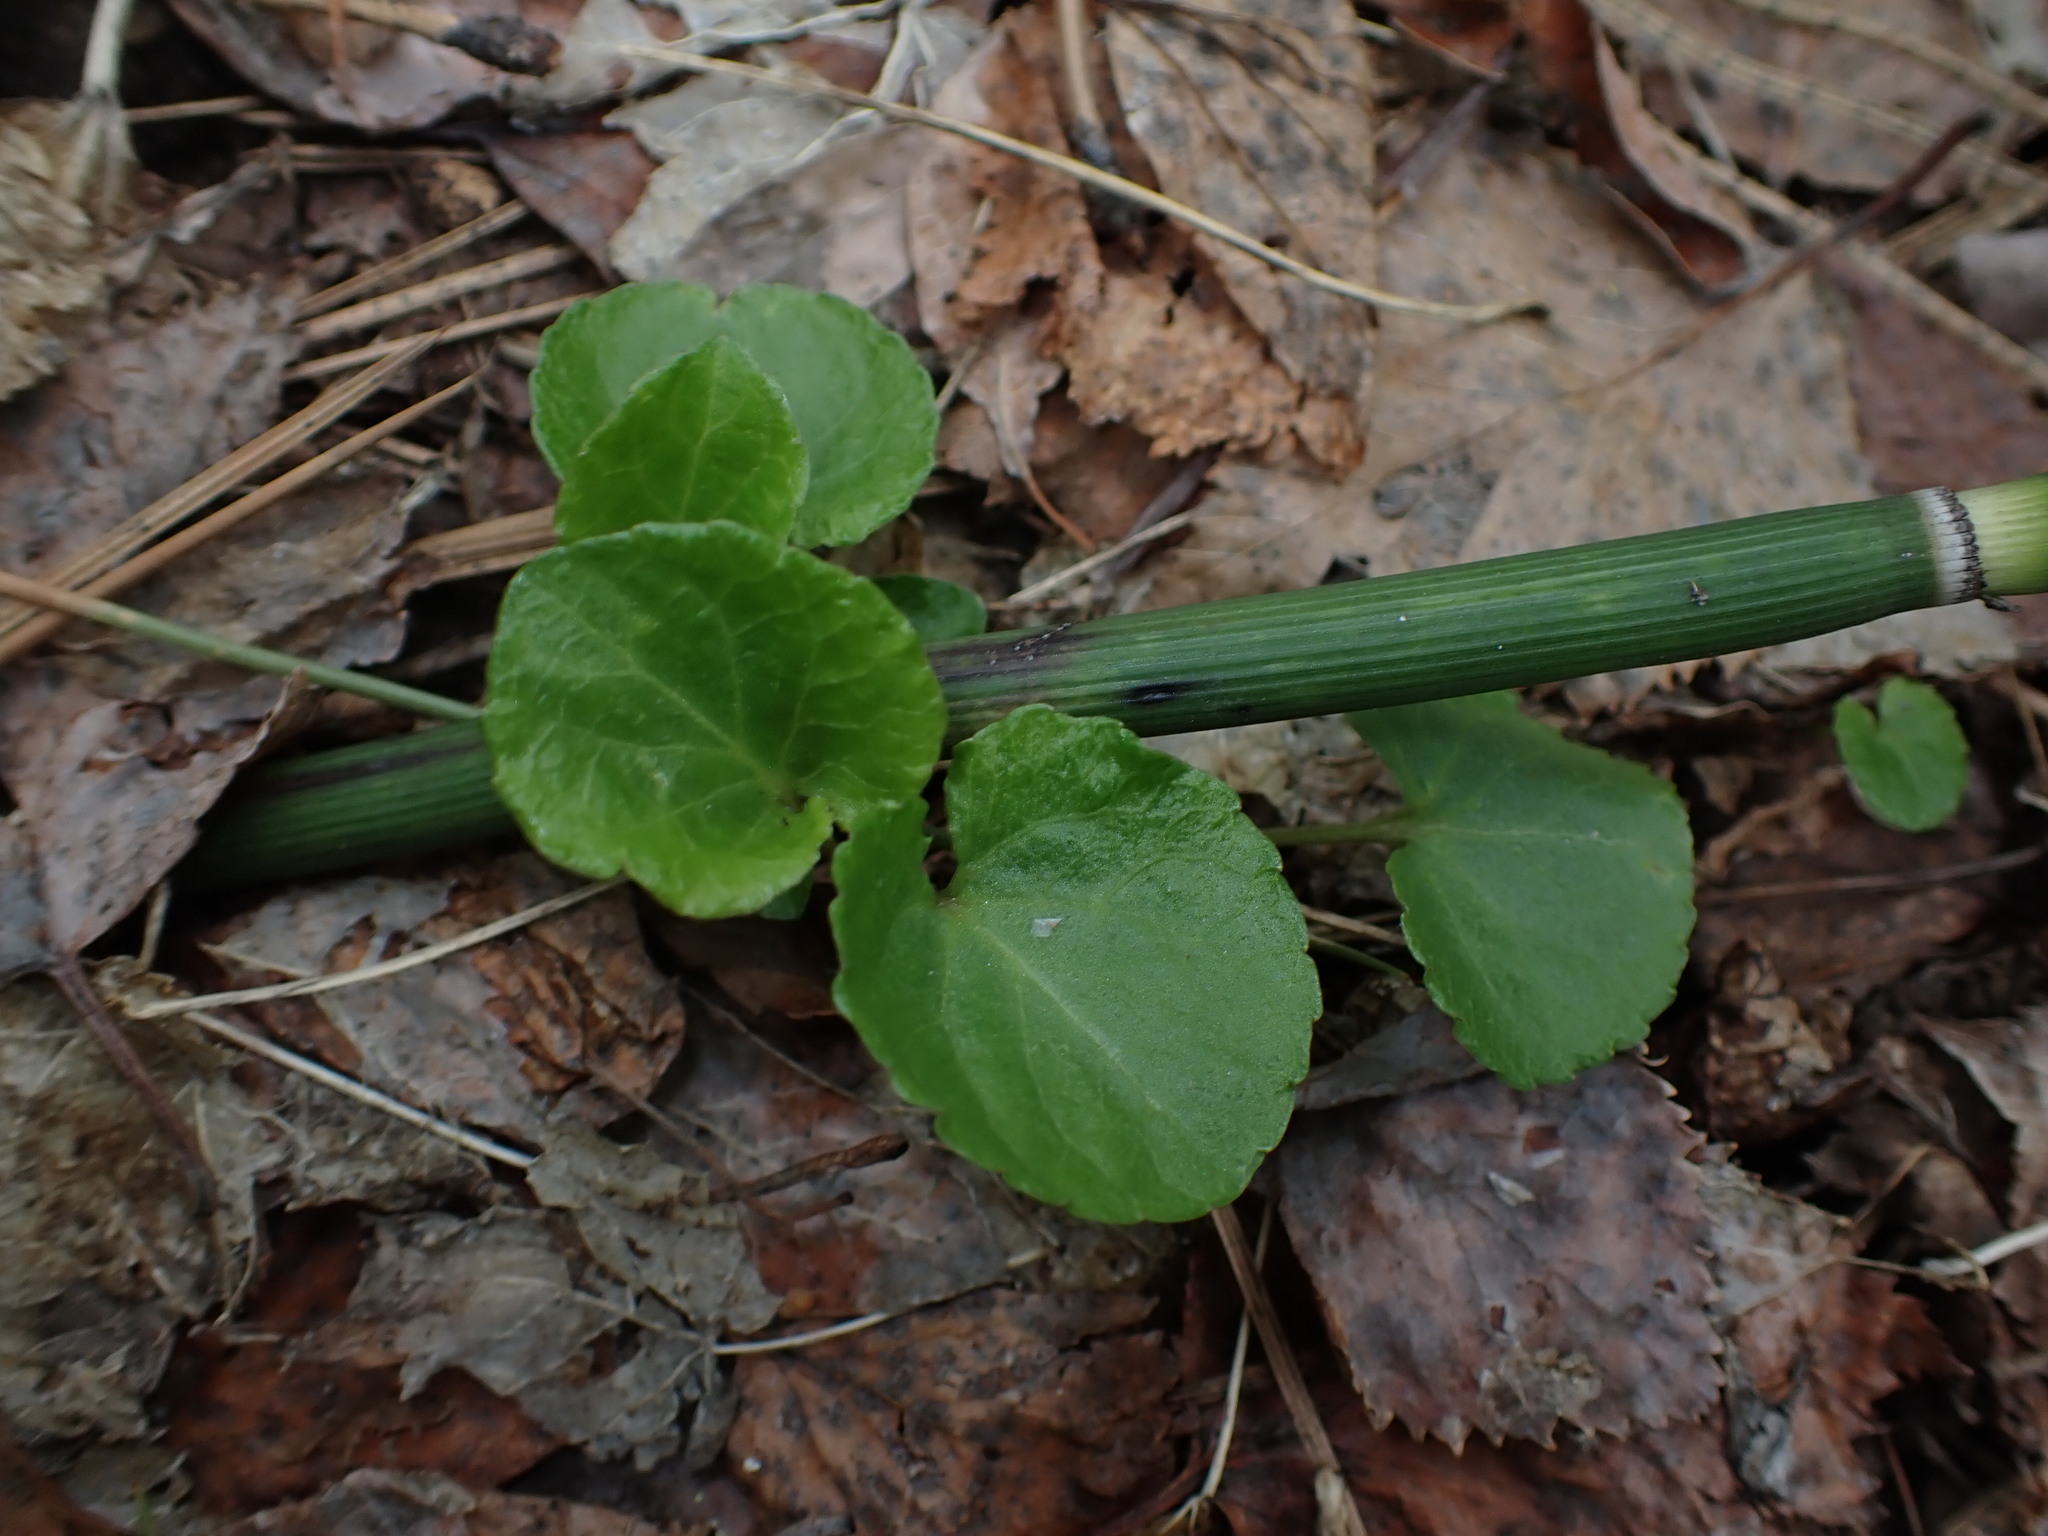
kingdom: Plantae
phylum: Tracheophyta
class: Magnoliopsida
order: Ericales
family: Ericaceae
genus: Pyrola
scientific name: Pyrola asarifolia
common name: Bog wintergreen
